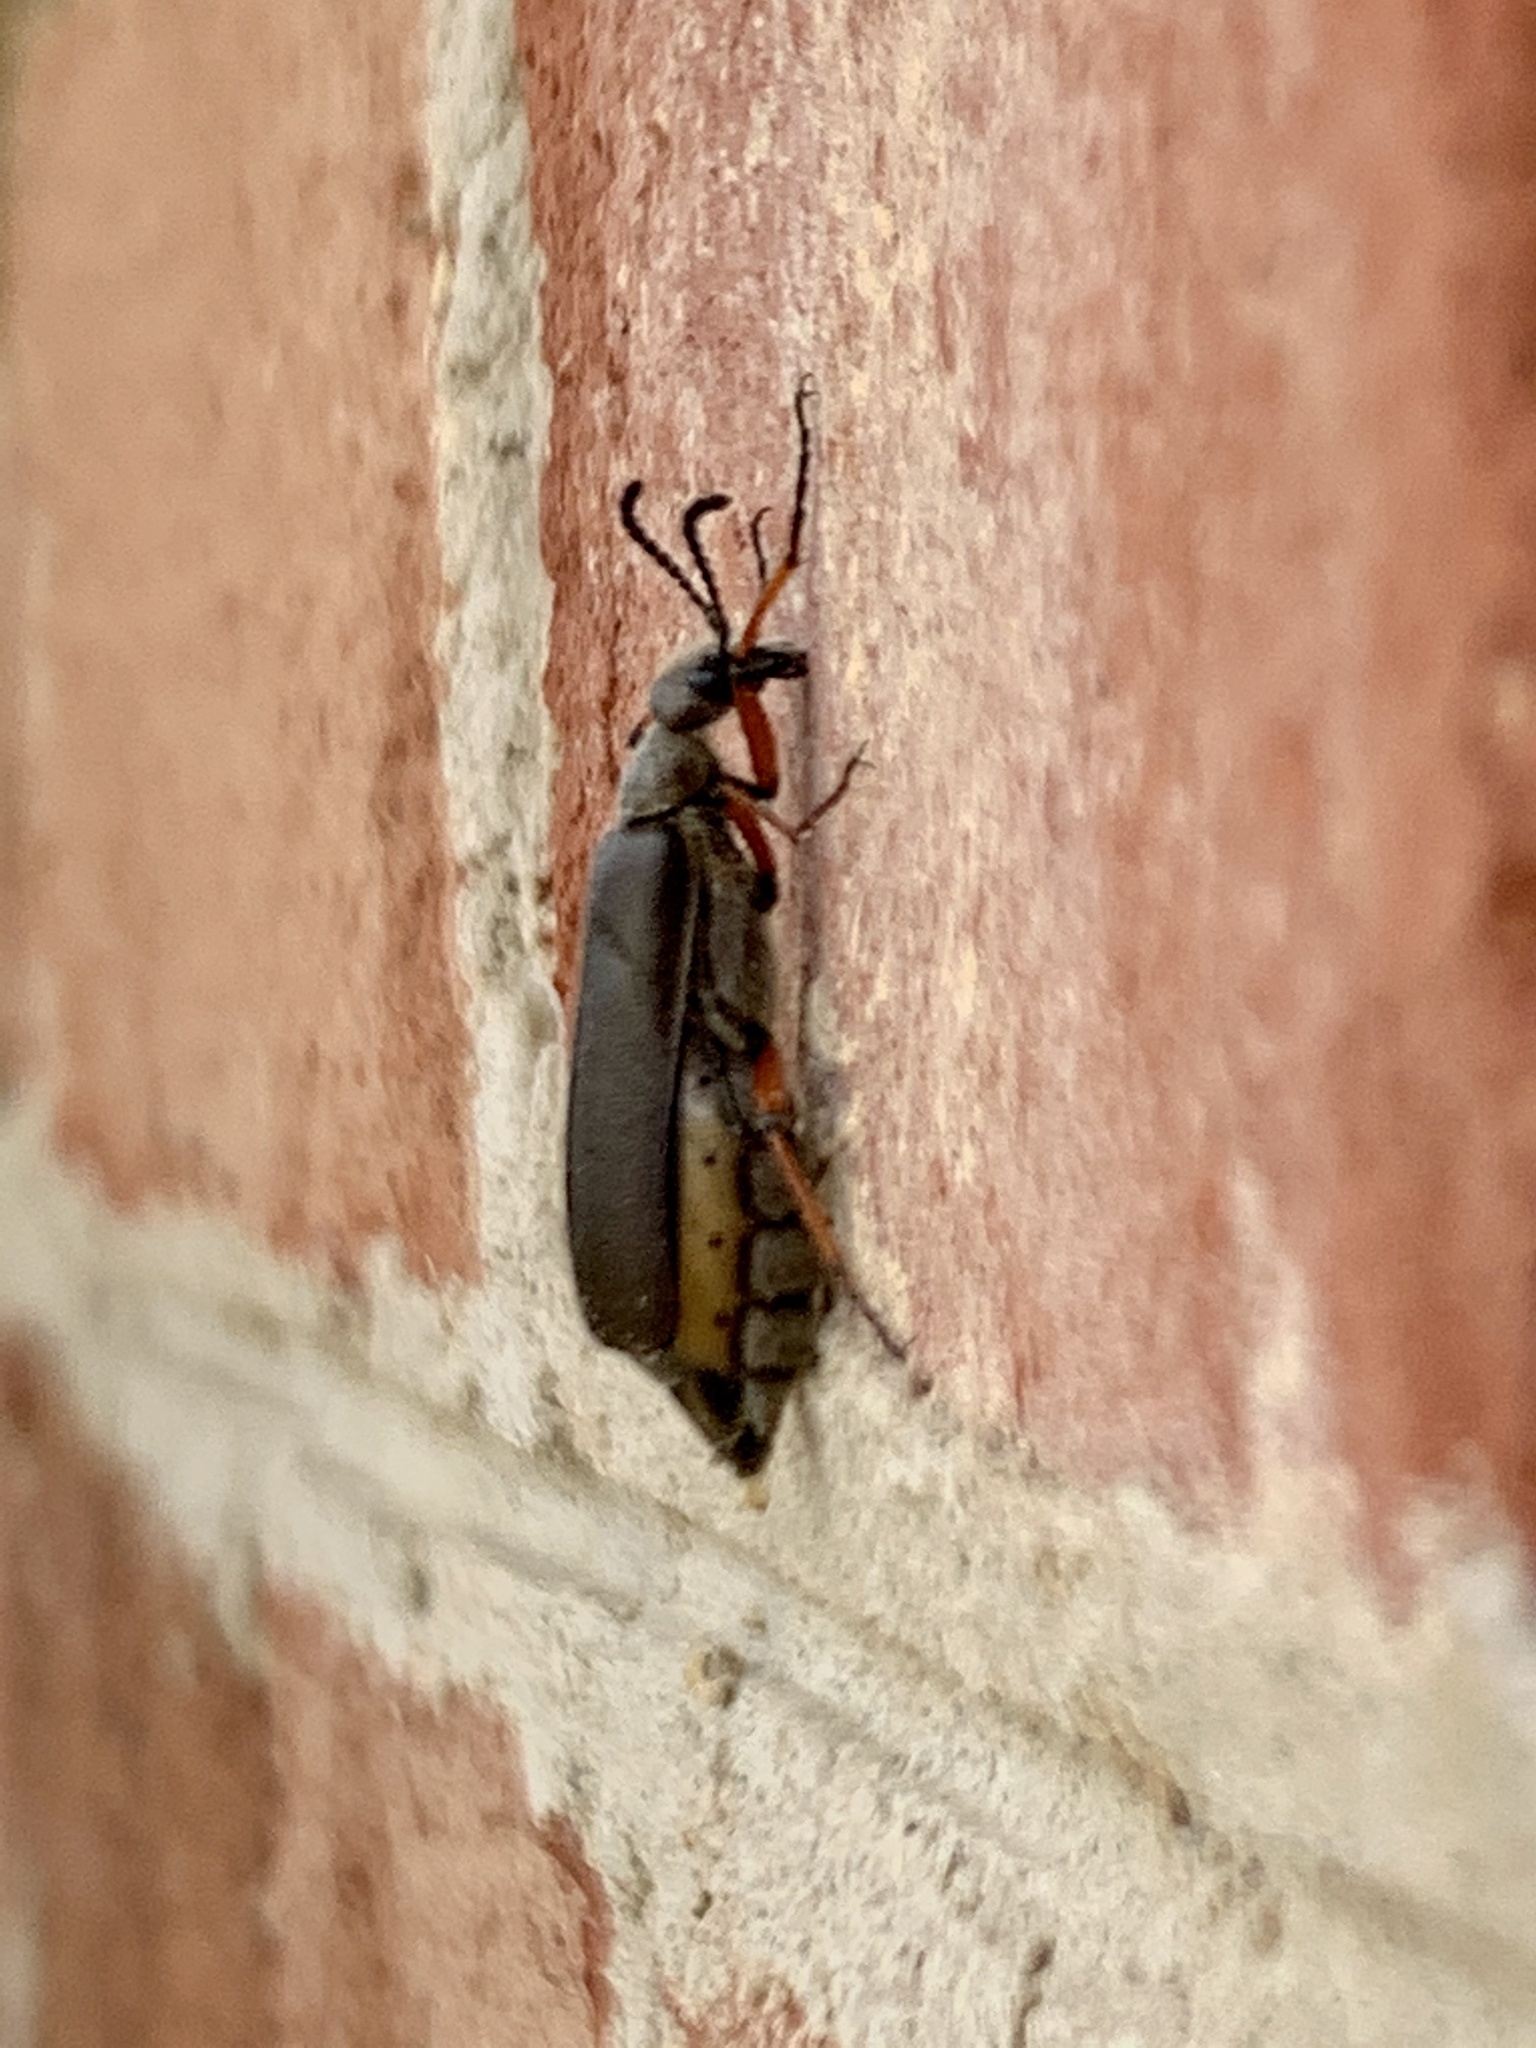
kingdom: Animalia
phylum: Arthropoda
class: Insecta
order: Coleoptera
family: Meloidae
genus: Lytta
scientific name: Lytta aenea
